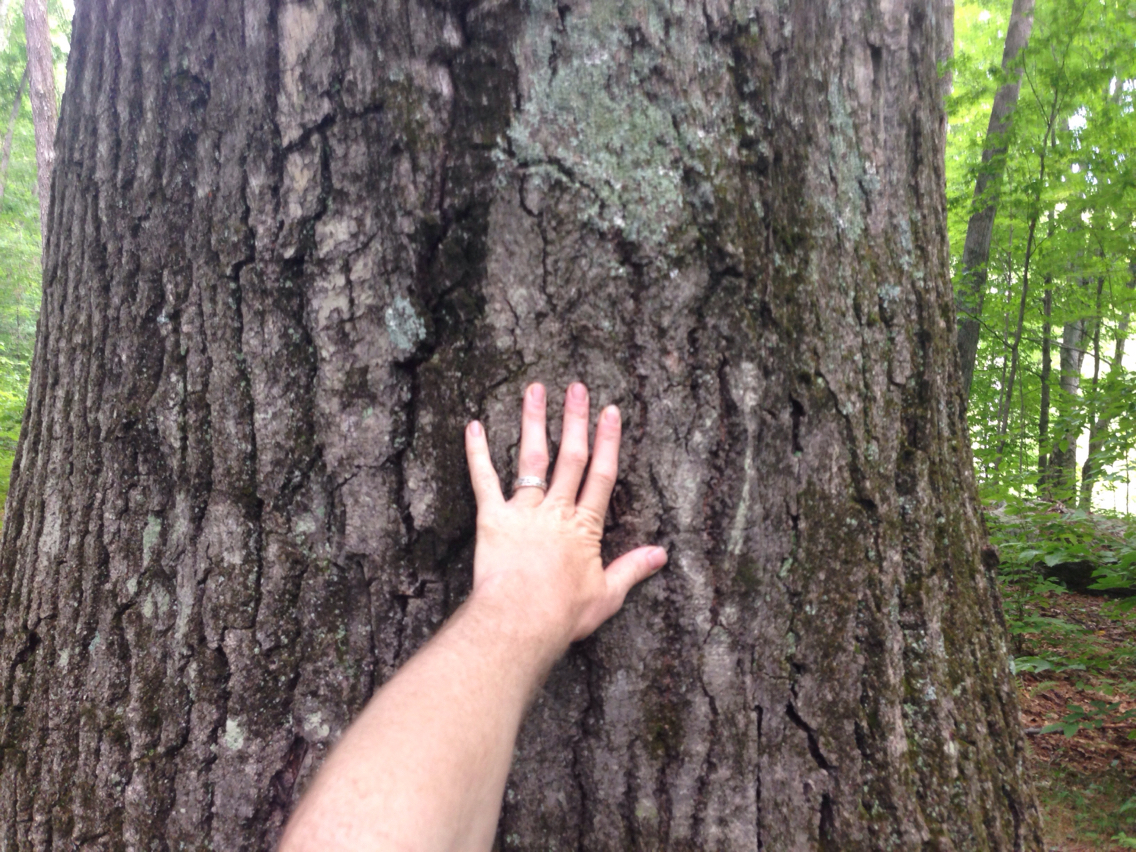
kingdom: Plantae
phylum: Tracheophyta
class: Magnoliopsida
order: Fagales
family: Fagaceae
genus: Quercus
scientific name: Quercus rubra
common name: Red oak
